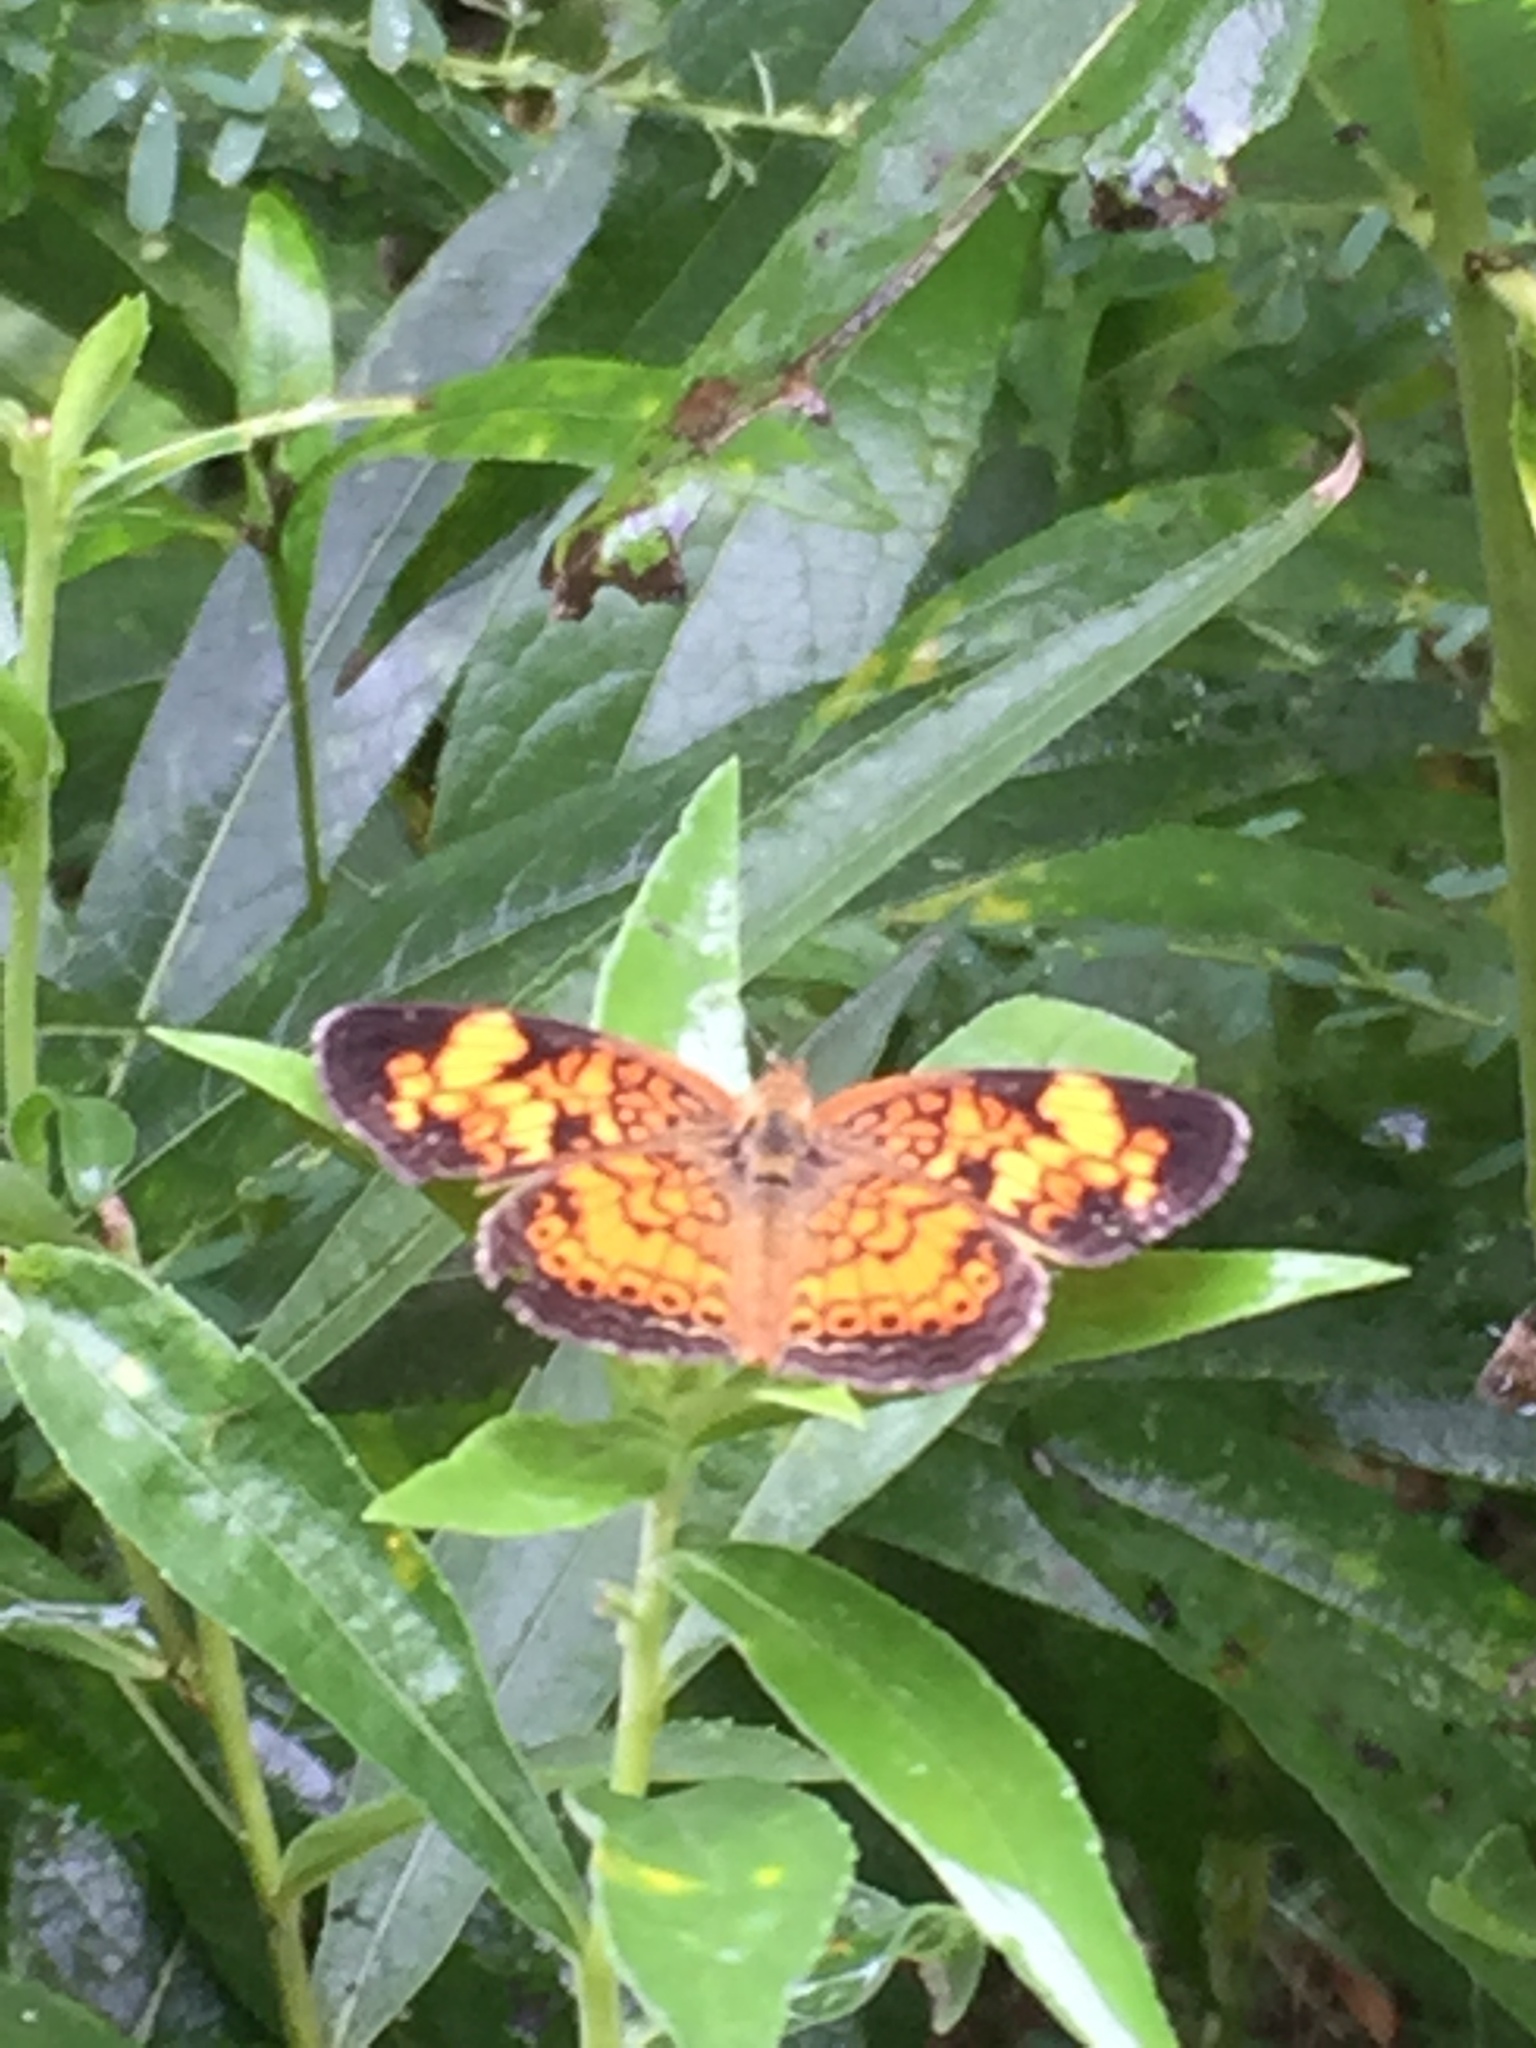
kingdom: Animalia
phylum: Arthropoda
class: Insecta
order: Lepidoptera
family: Nymphalidae
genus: Phyciodes
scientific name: Phyciodes tharos
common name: Pearl crescent
